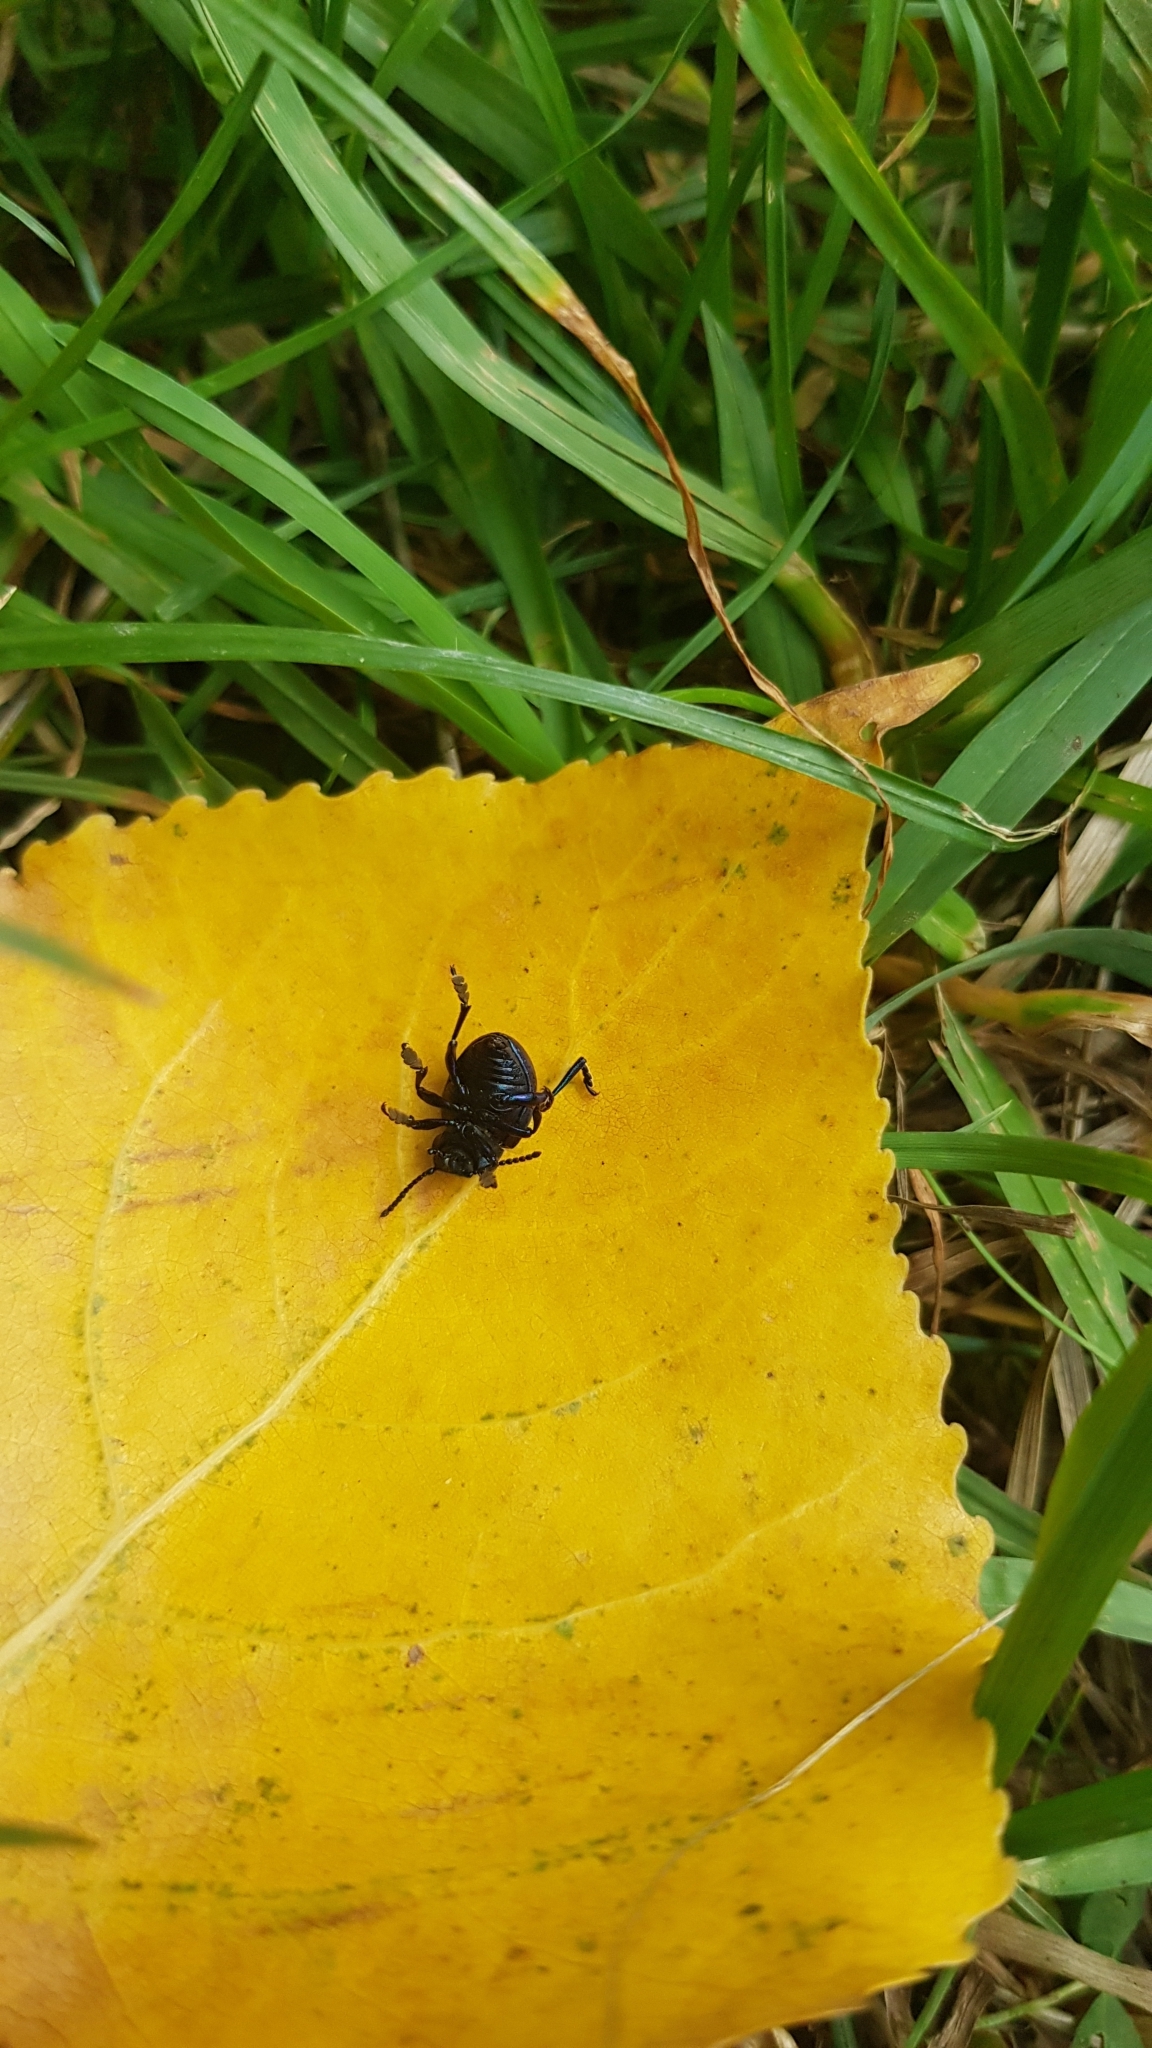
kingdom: Animalia
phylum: Arthropoda
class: Insecta
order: Coleoptera
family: Chrysomelidae
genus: Timarcha
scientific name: Timarcha goettingensis
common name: Small bloody-nosed beetle
